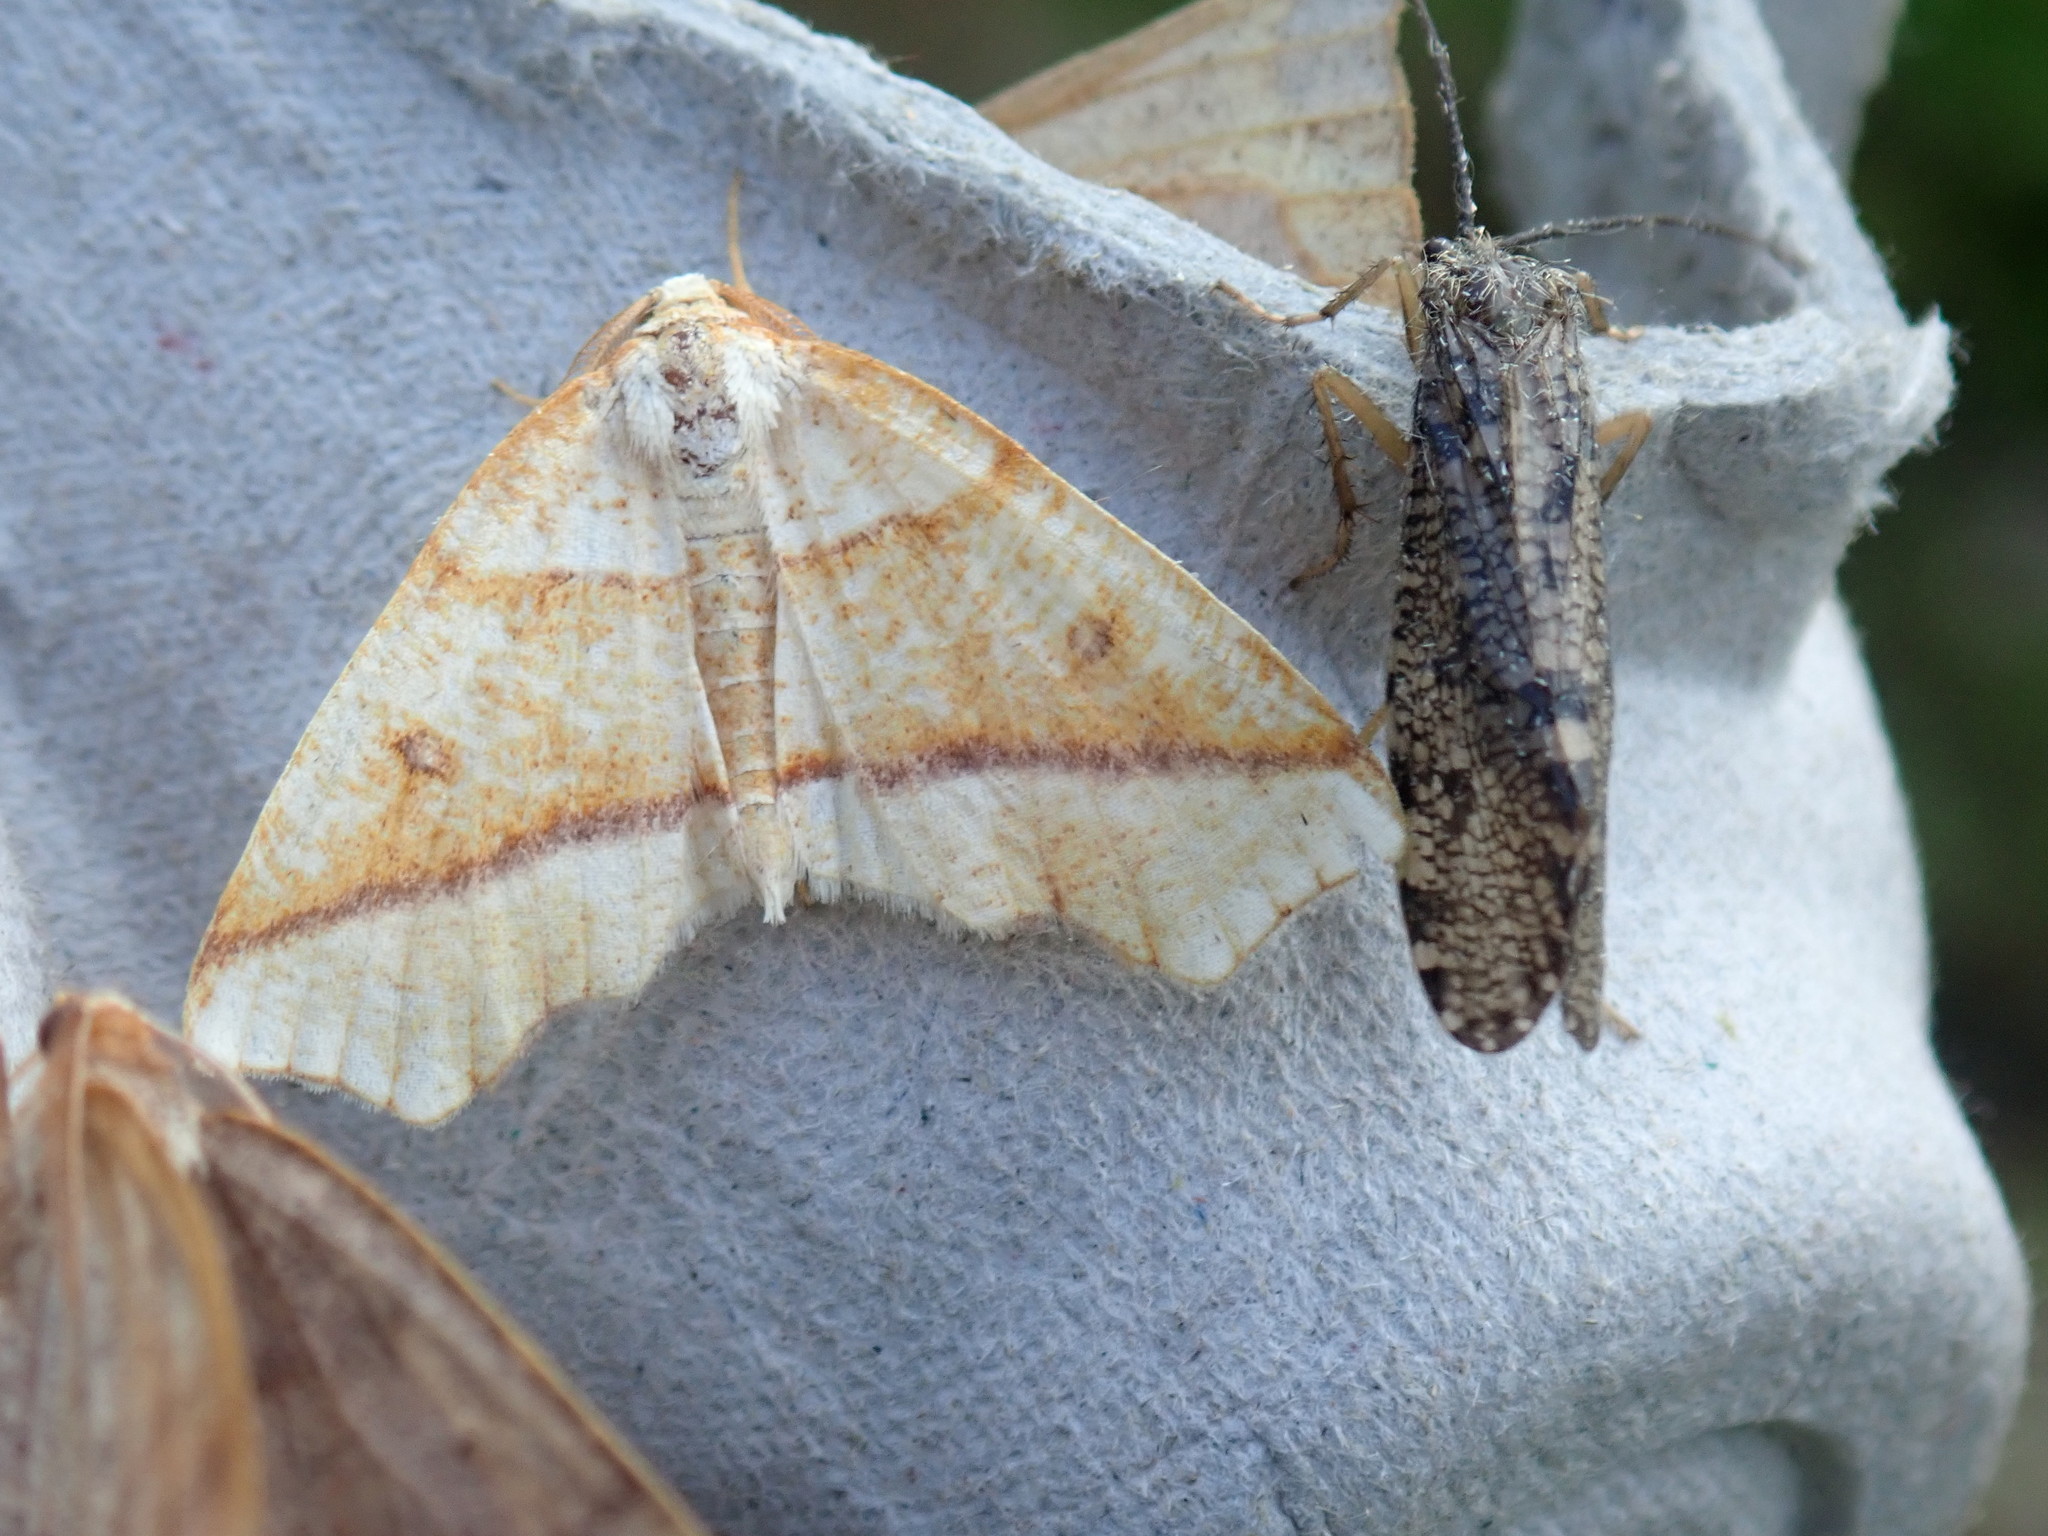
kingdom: Animalia
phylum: Arthropoda
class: Insecta
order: Lepidoptera
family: Geometridae
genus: Plagodis
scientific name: Plagodis alcoolaria
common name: Hollow-spotted plagodis
